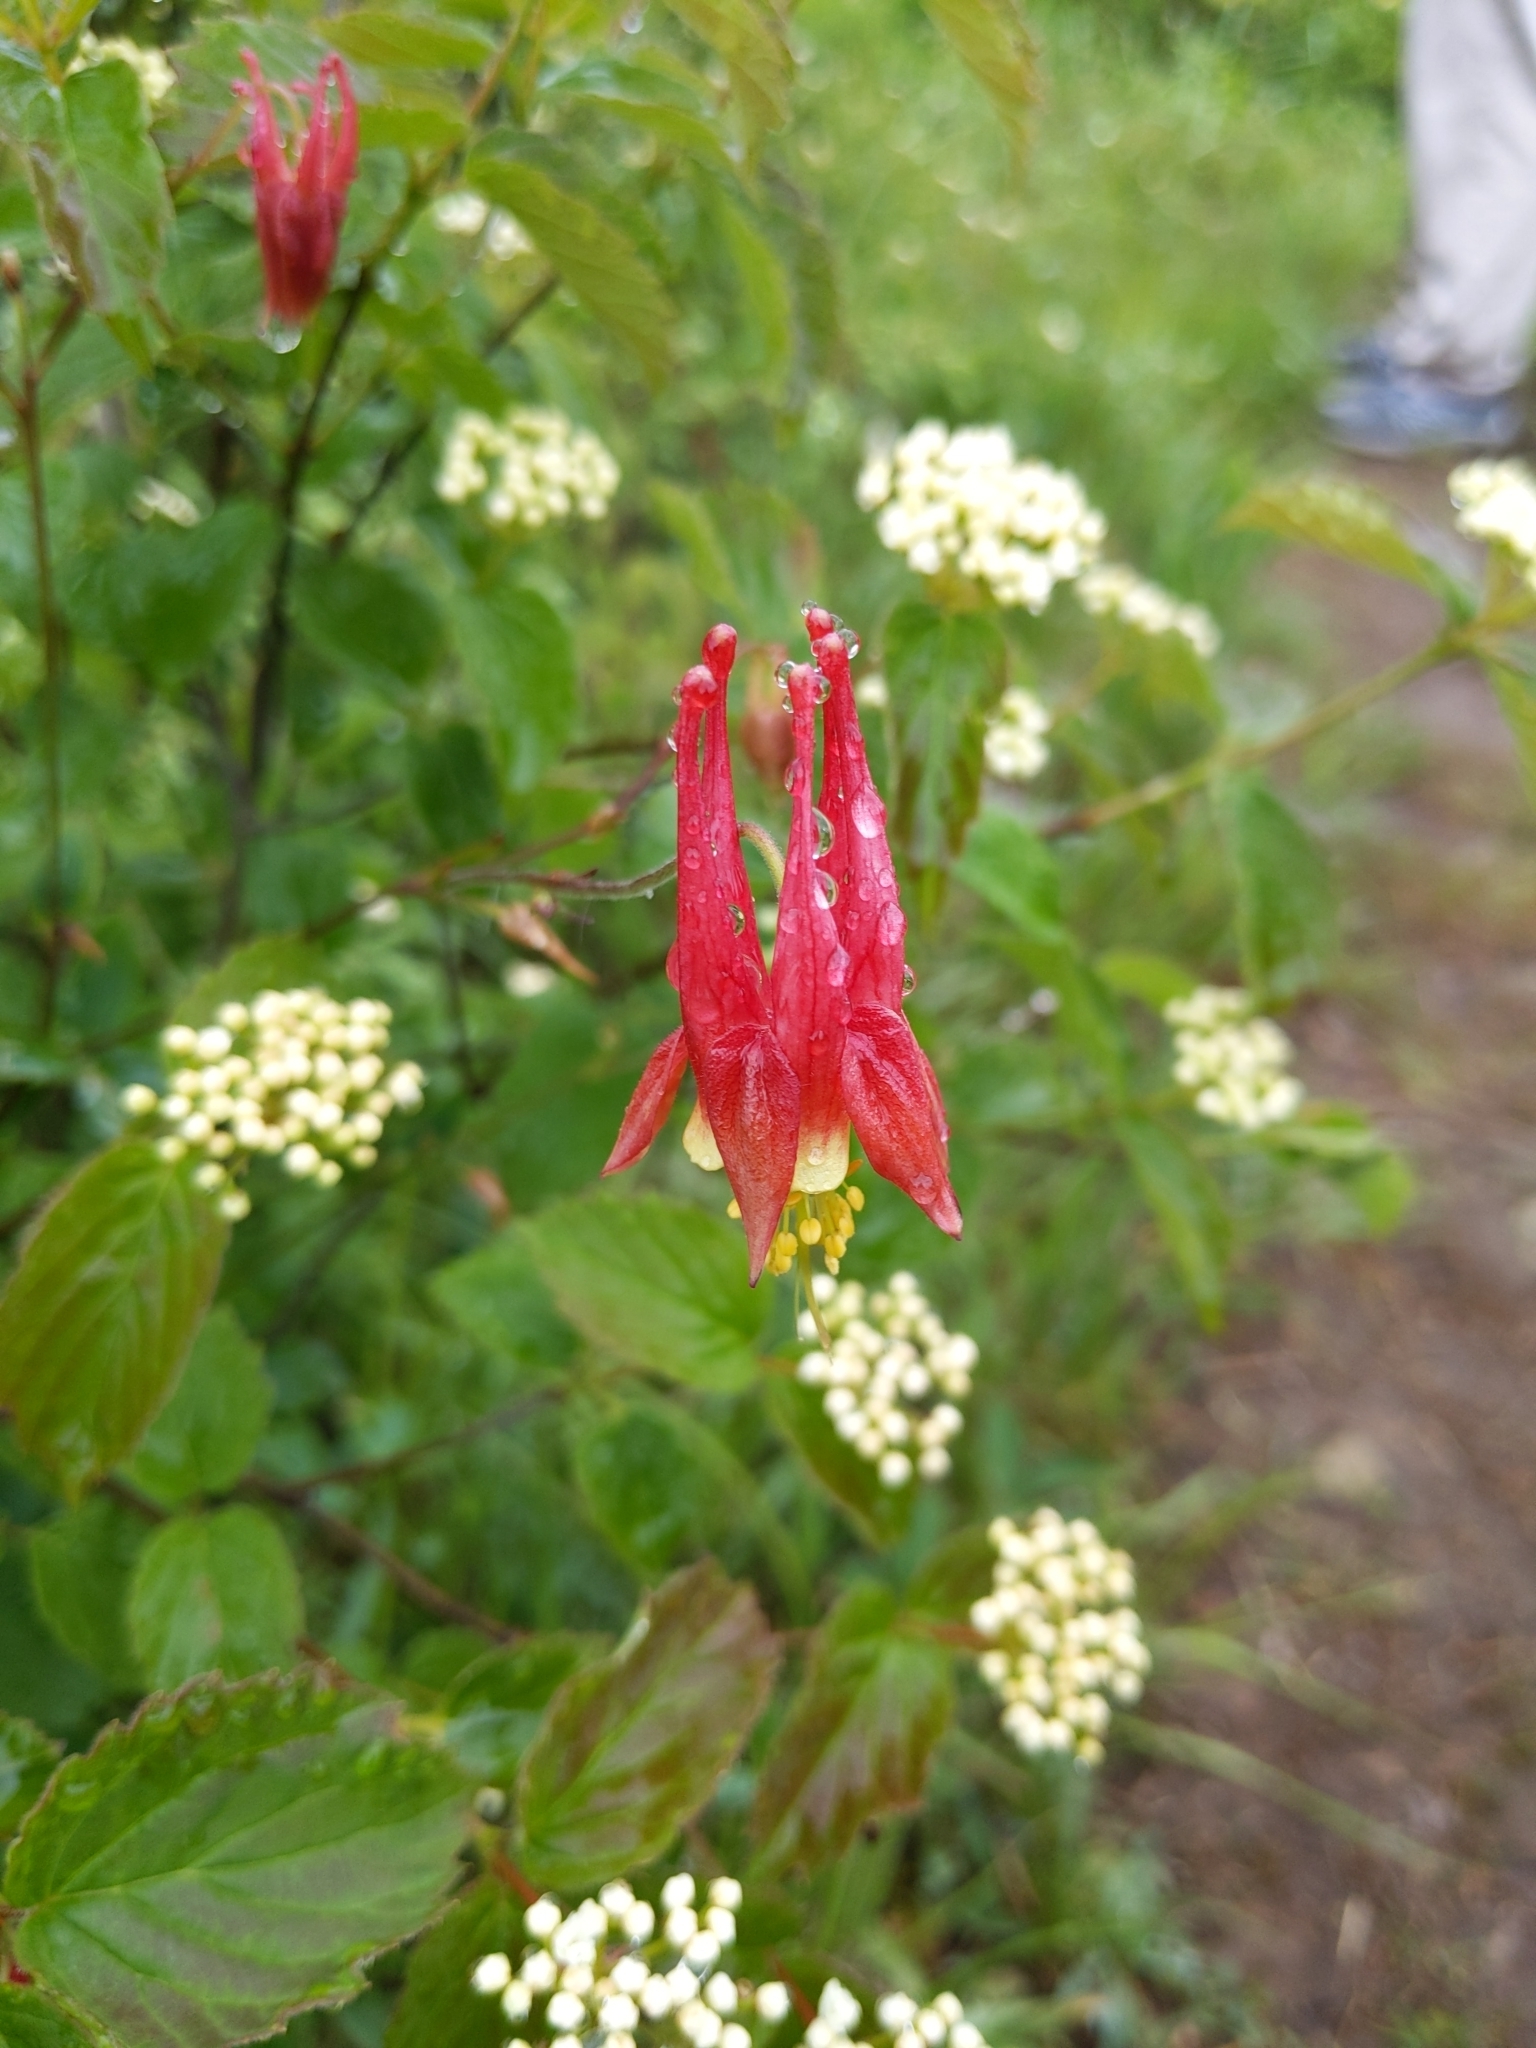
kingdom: Plantae
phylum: Tracheophyta
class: Magnoliopsida
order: Ranunculales
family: Ranunculaceae
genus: Aquilegia
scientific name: Aquilegia canadensis
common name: American columbine
